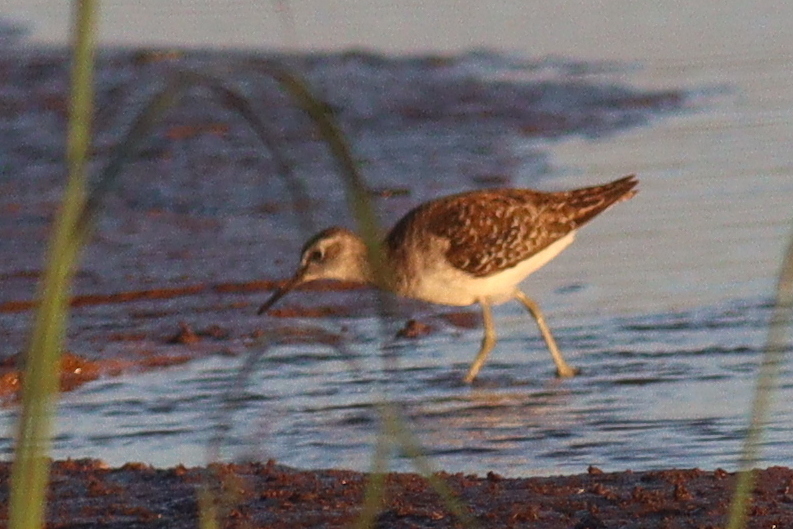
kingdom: Animalia
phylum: Chordata
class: Aves
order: Charadriiformes
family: Scolopacidae
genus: Tringa
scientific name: Tringa glareola
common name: Wood sandpiper
